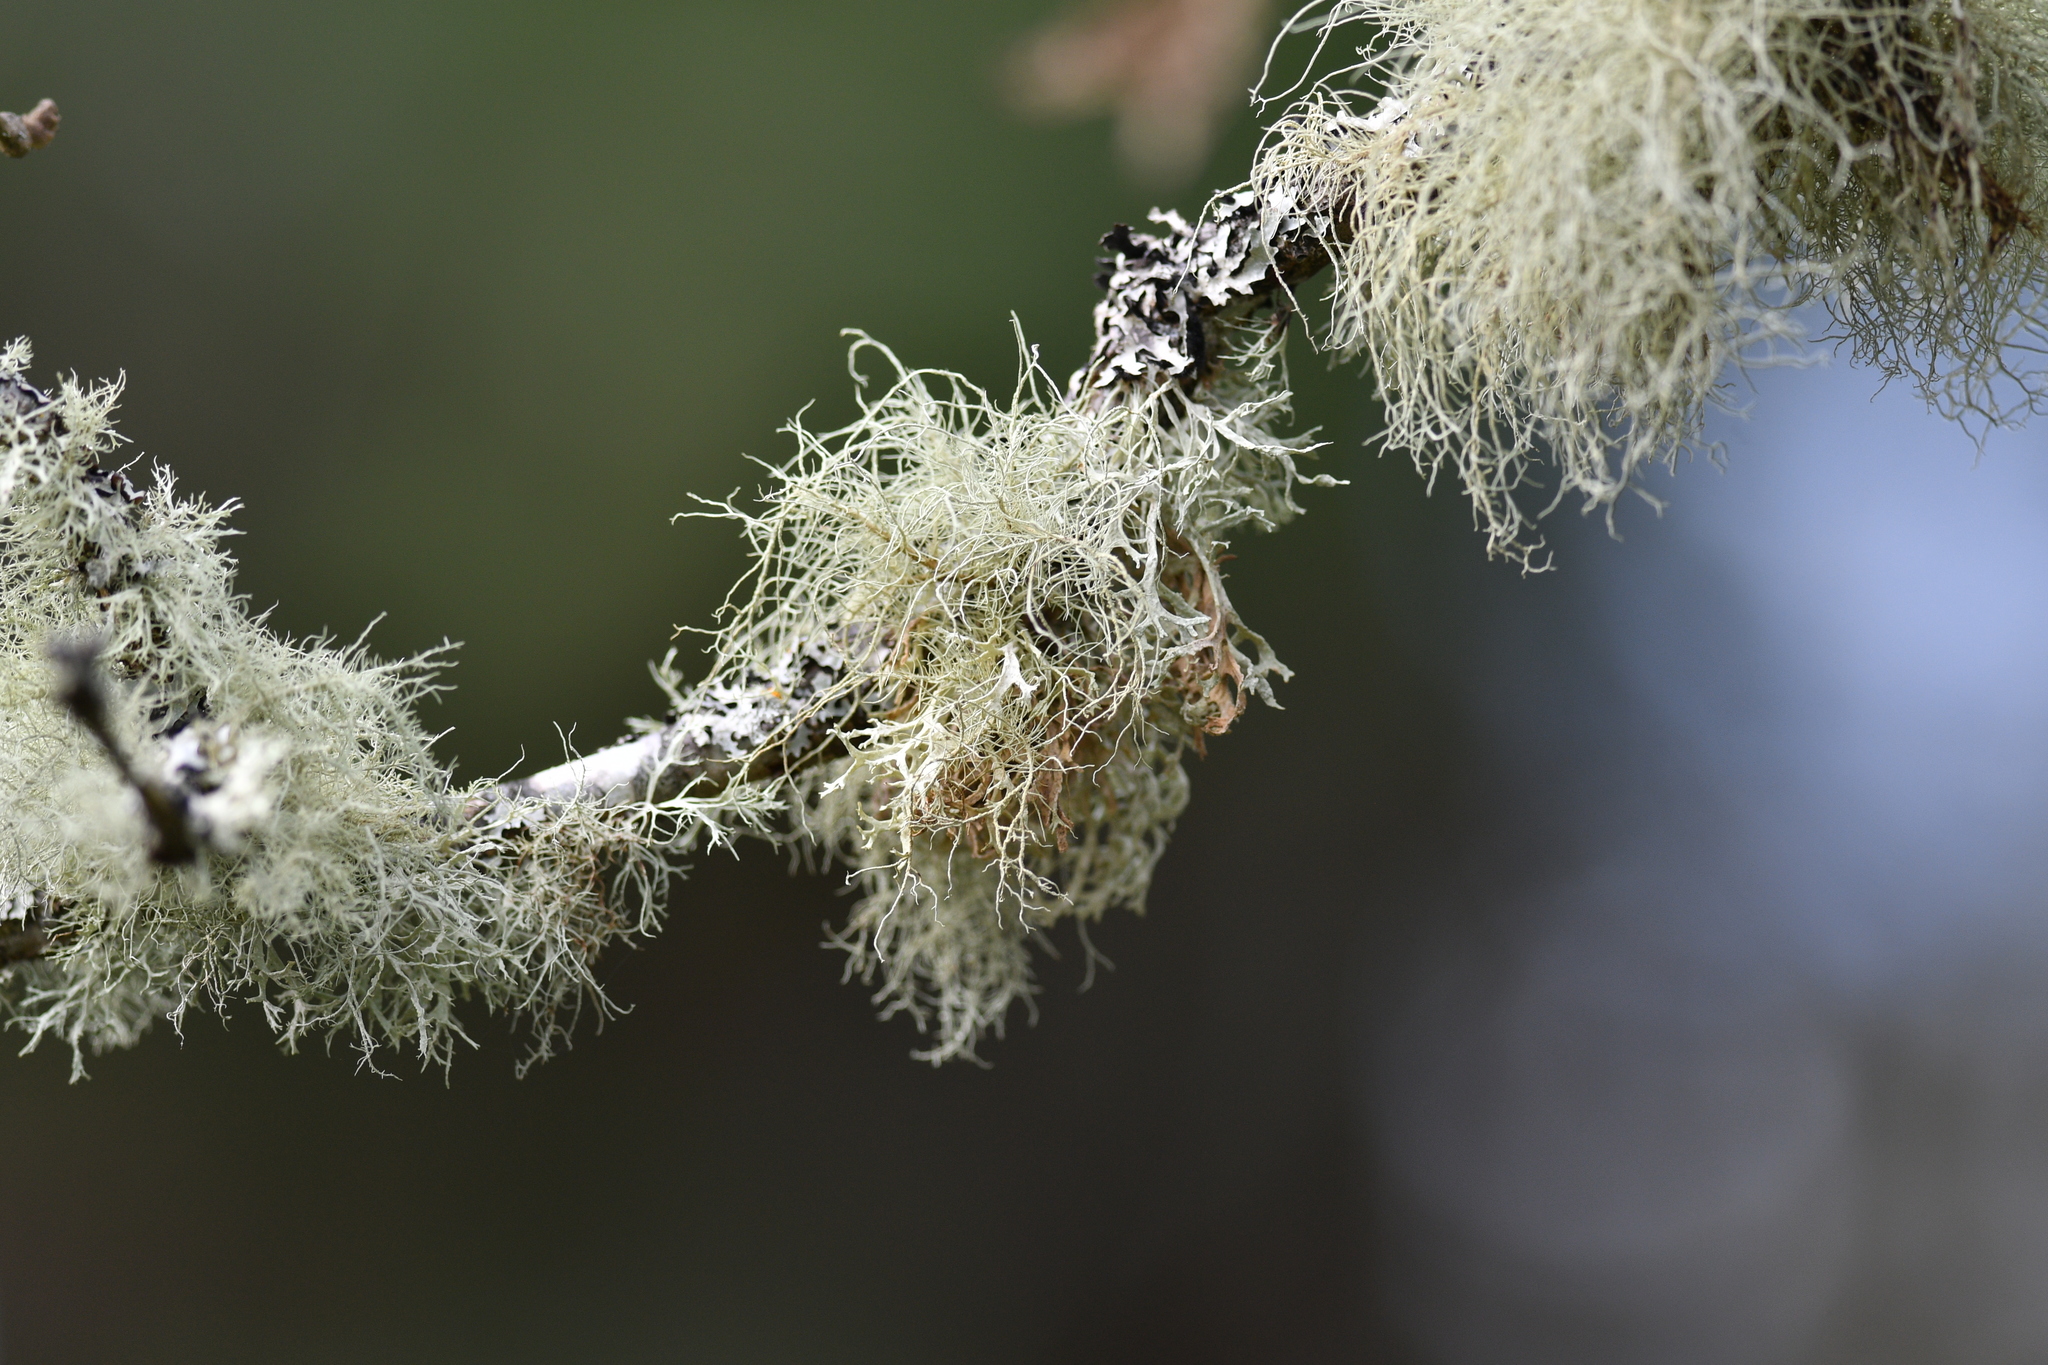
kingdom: Fungi
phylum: Ascomycota
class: Lecanoromycetes
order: Lecanorales
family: Parmeliaceae
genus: Usnea
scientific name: Usnea hirta
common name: Bristly beard lichen
